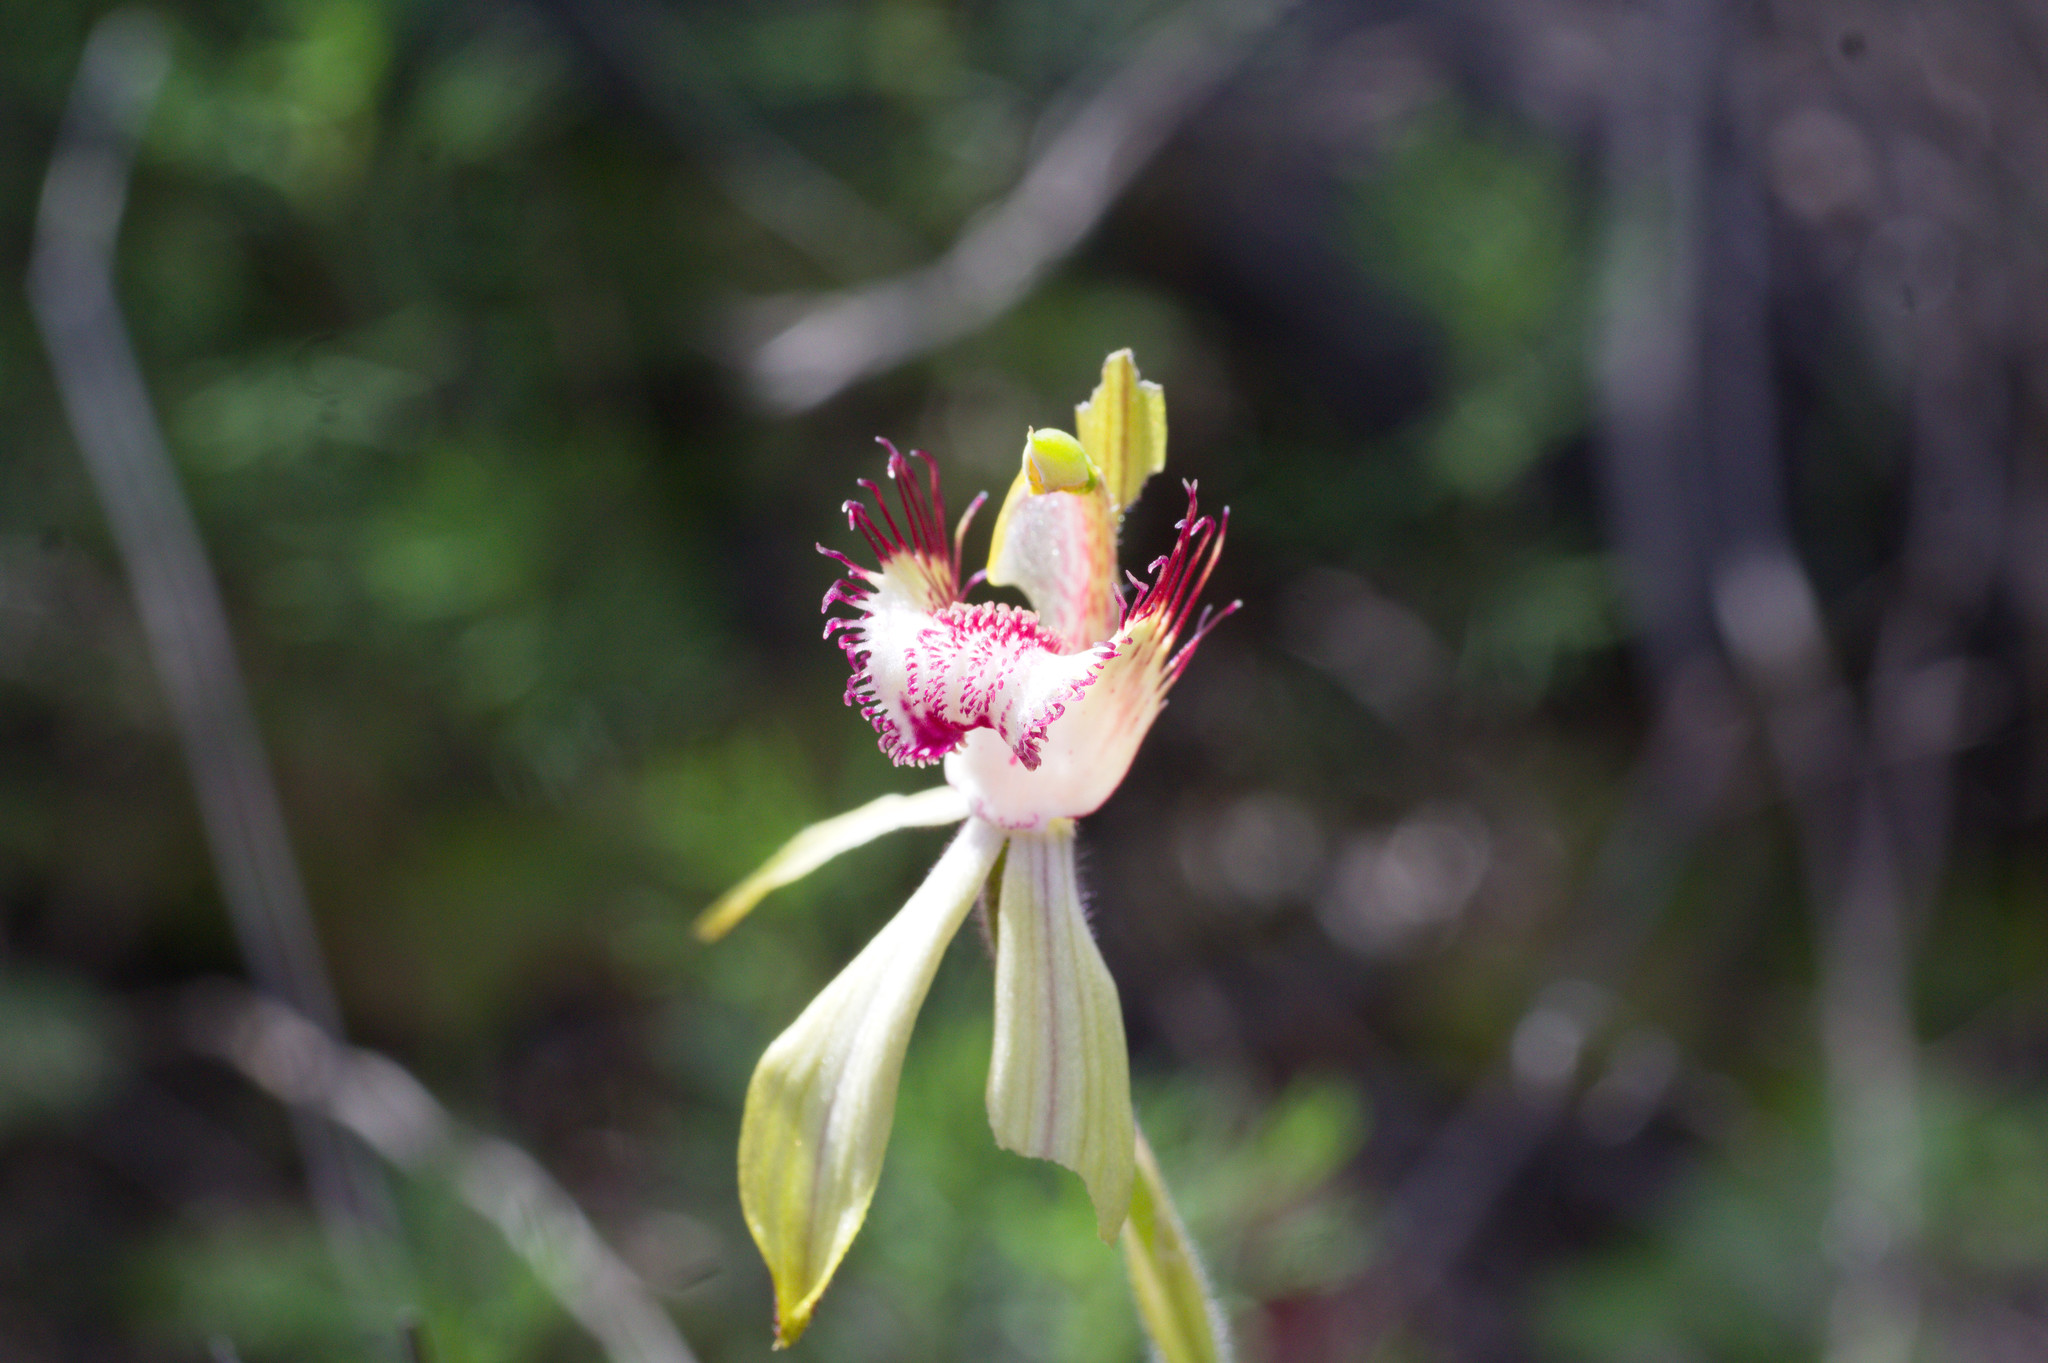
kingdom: Plantae
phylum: Tracheophyta
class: Liliopsida
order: Asparagales
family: Orchidaceae
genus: Caladenia
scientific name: Caladenia coactescens
